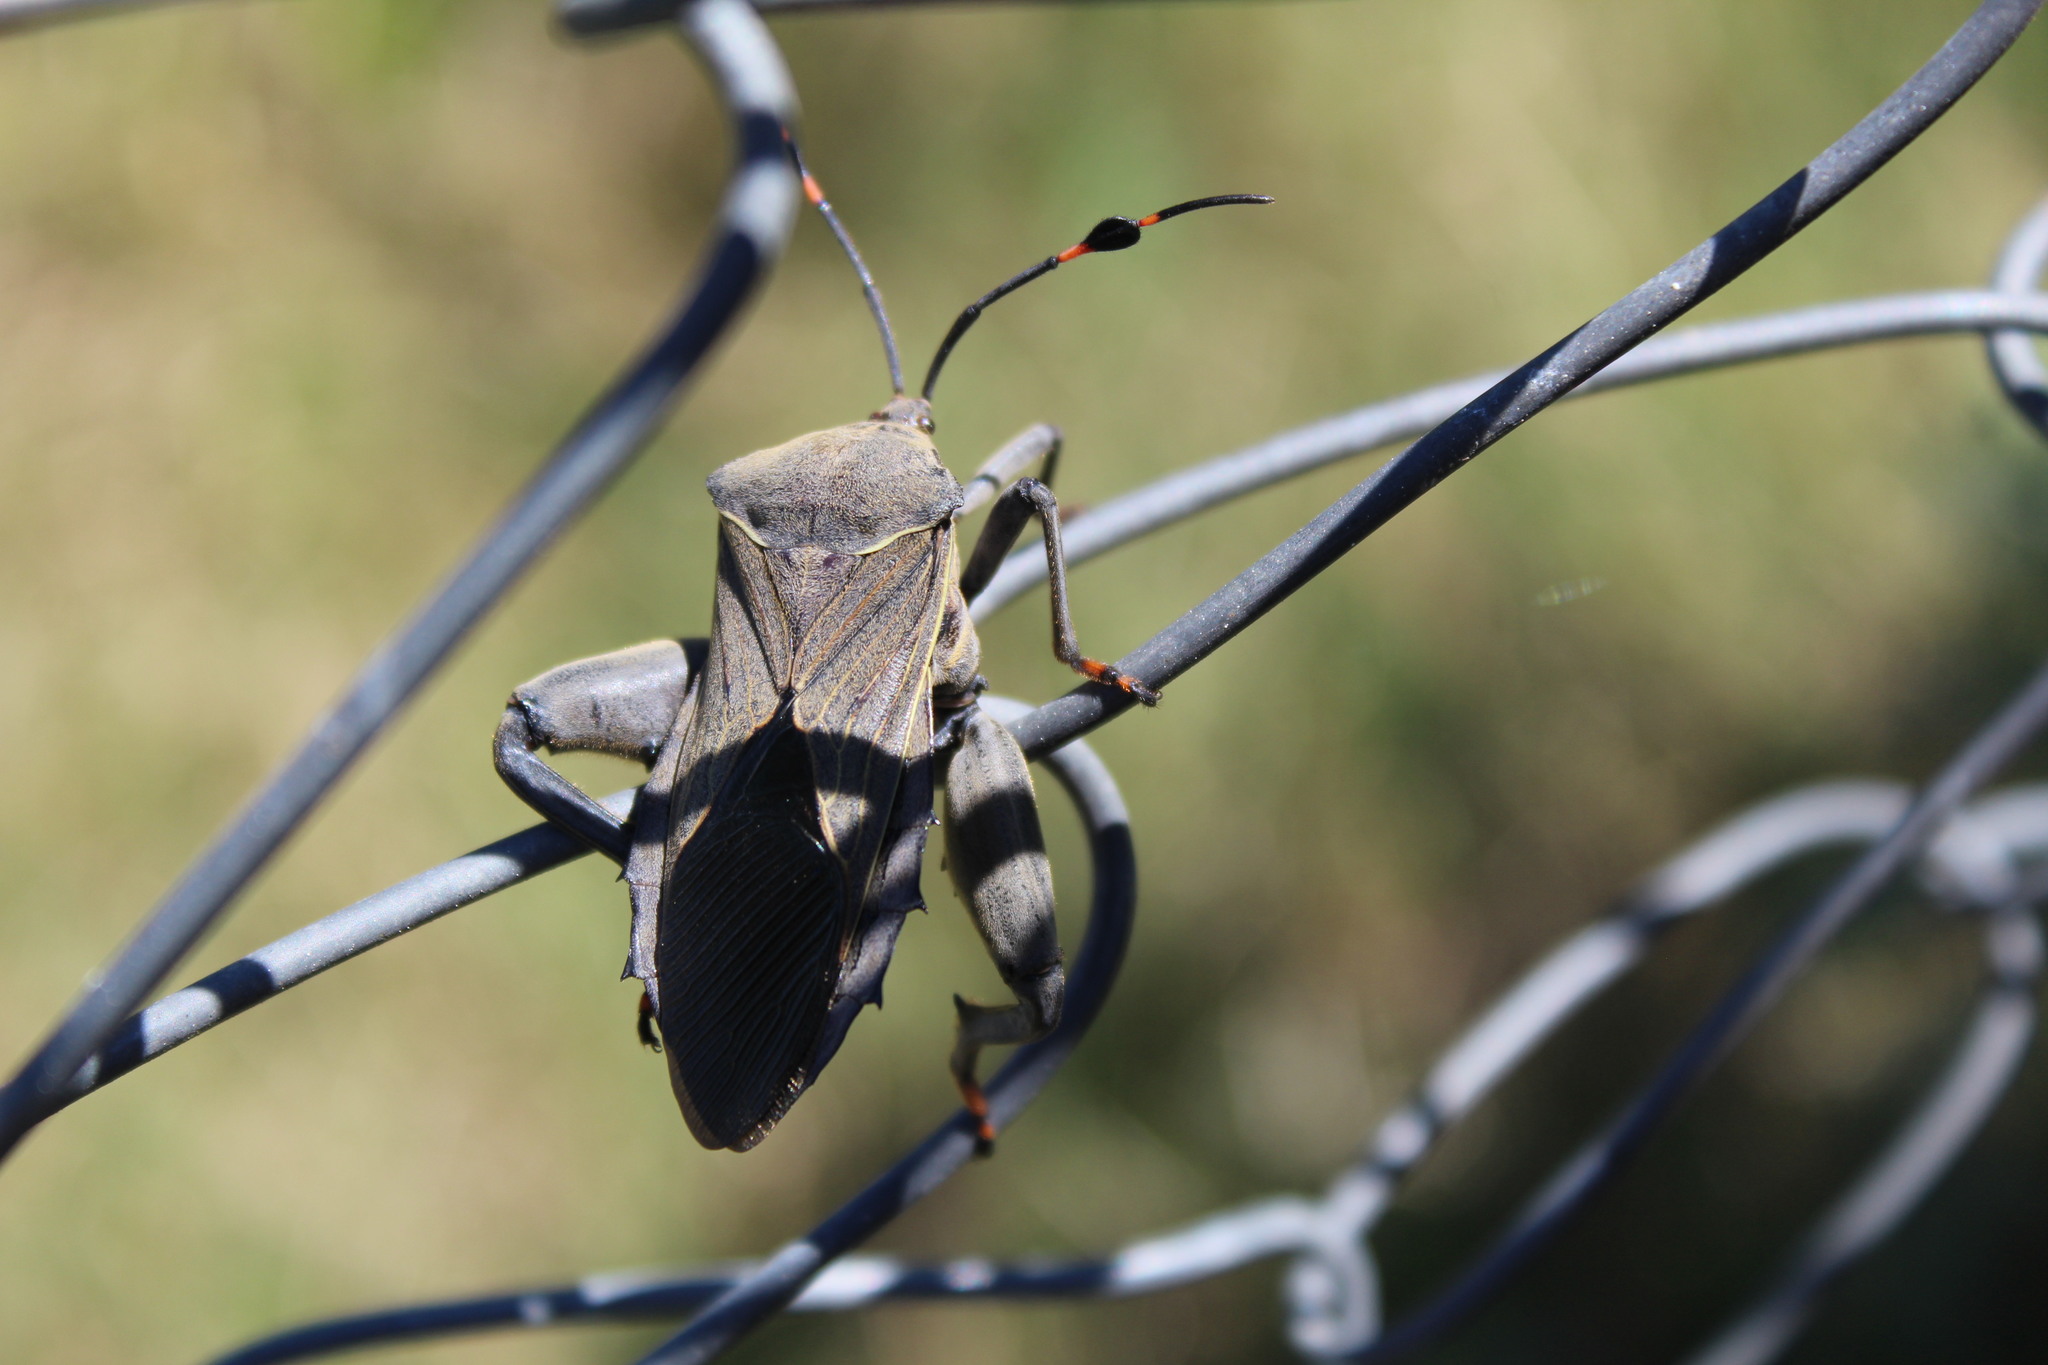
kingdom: Animalia
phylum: Arthropoda
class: Insecta
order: Hemiptera
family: Coreidae
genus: Pachylis
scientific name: Pachylis nervosus
